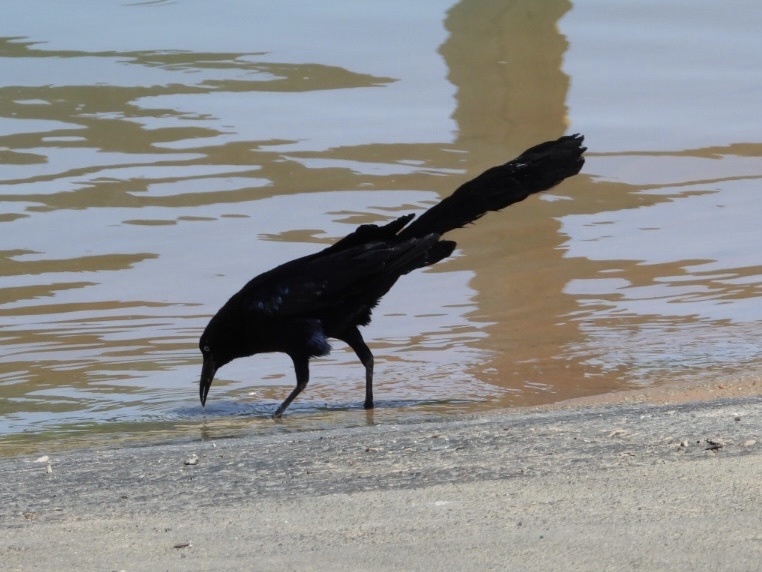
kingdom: Animalia
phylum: Chordata
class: Aves
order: Passeriformes
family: Icteridae
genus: Quiscalus
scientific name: Quiscalus mexicanus
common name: Great-tailed grackle
